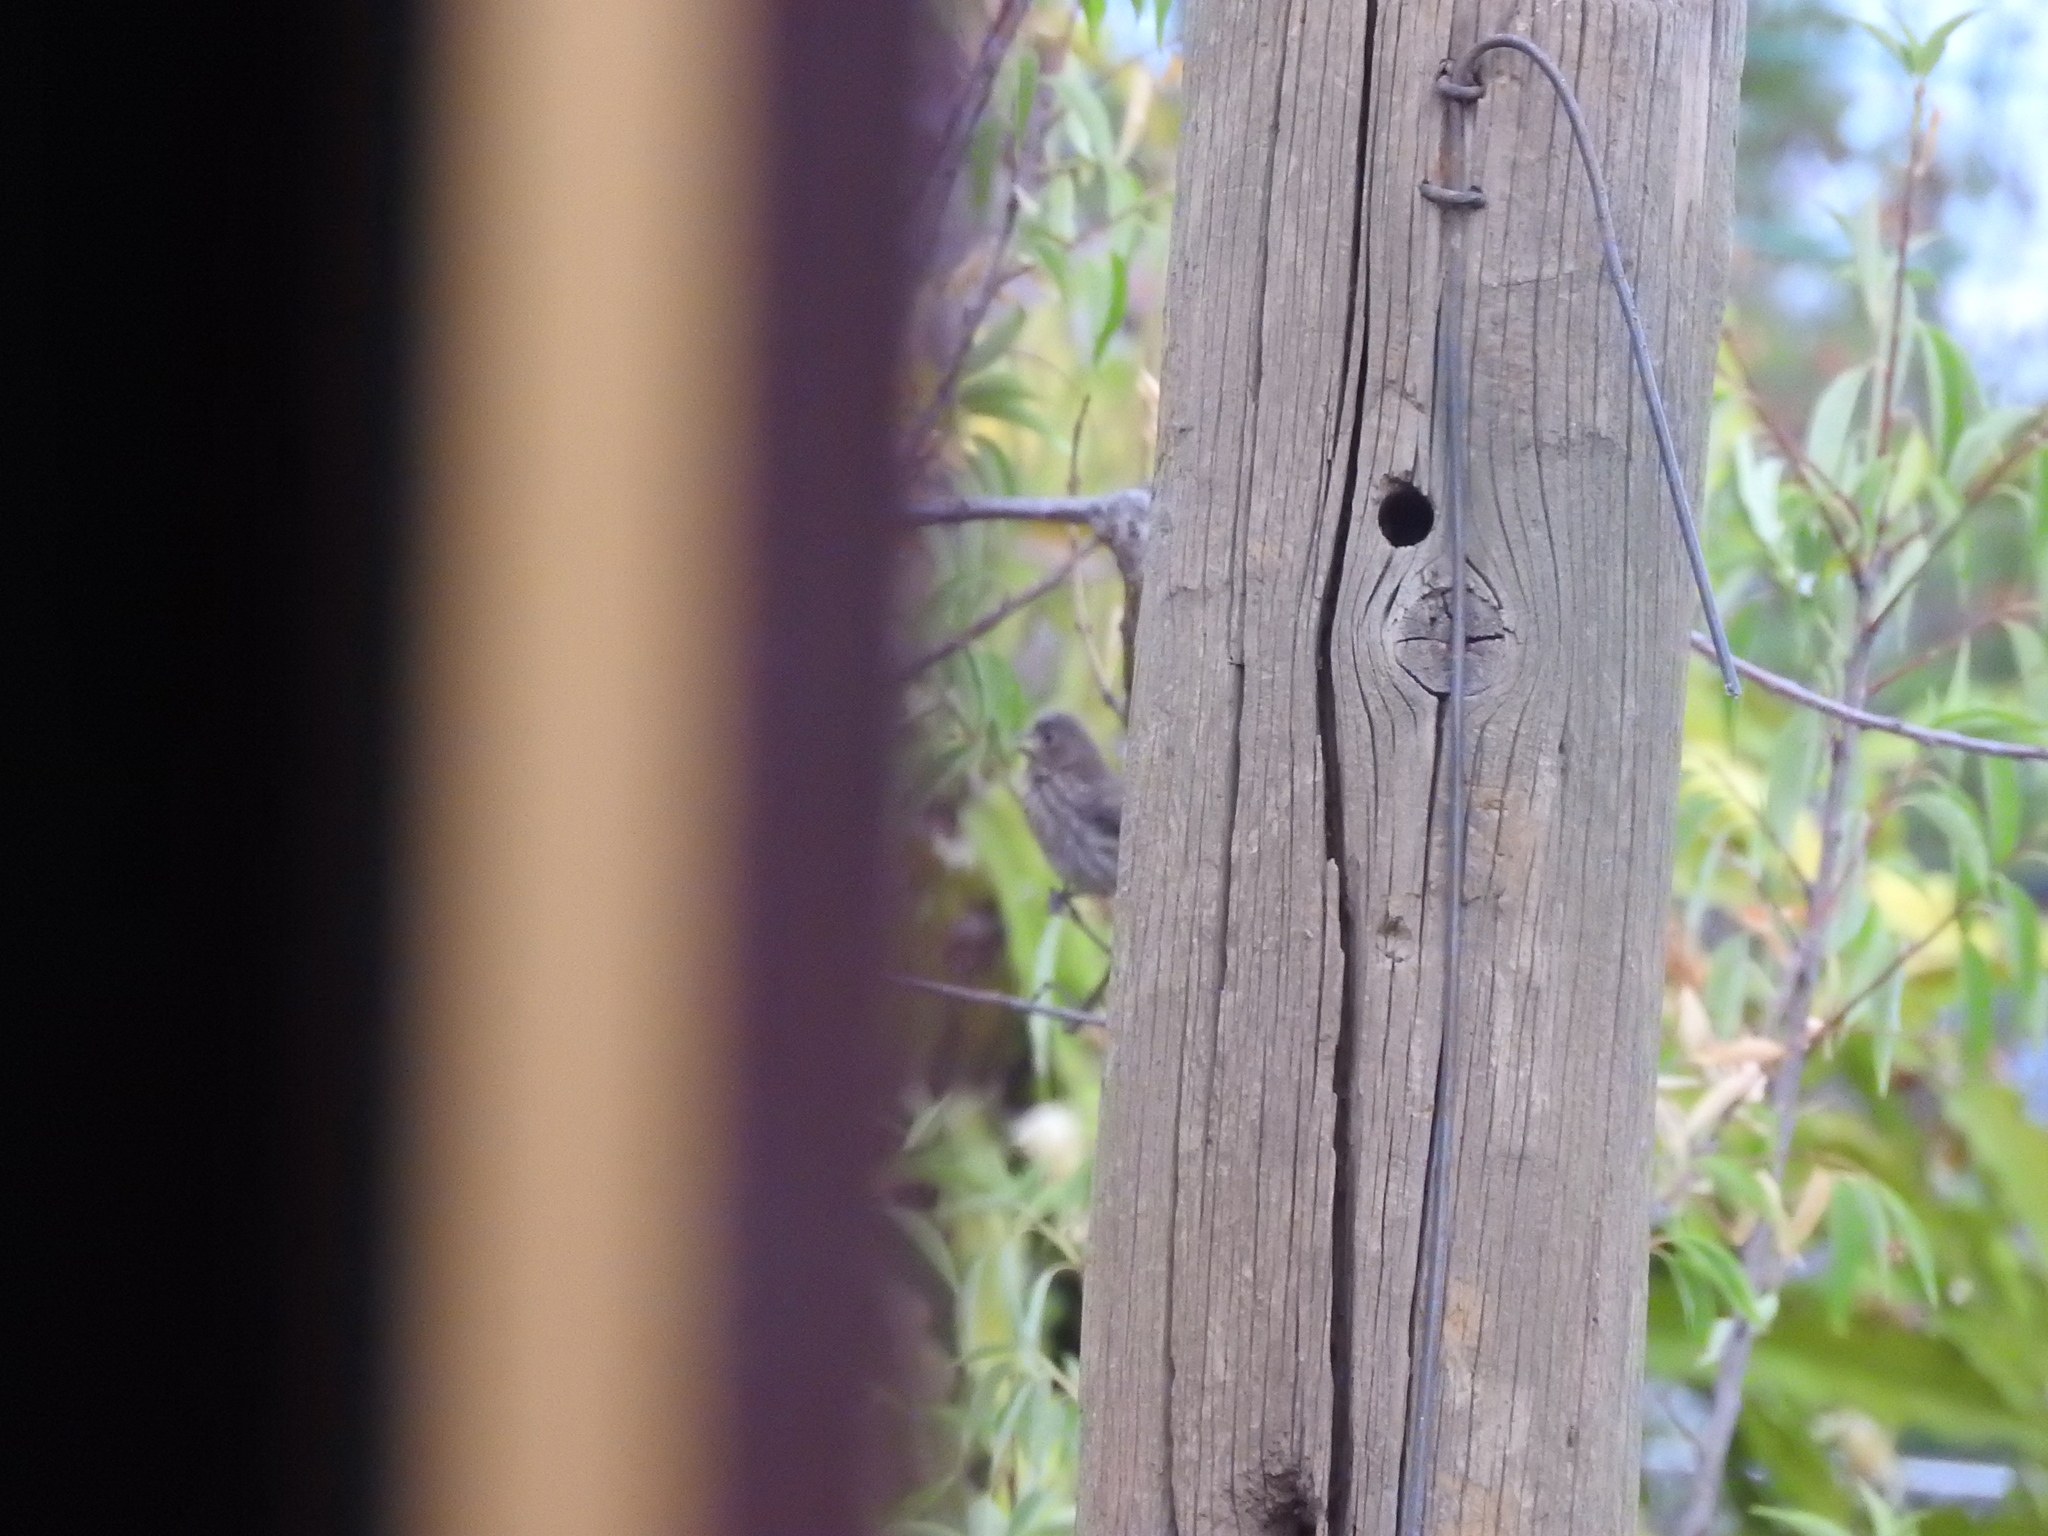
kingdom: Animalia
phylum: Chordata
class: Aves
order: Passeriformes
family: Fringillidae
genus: Haemorhous
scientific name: Haemorhous mexicanus
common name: House finch
